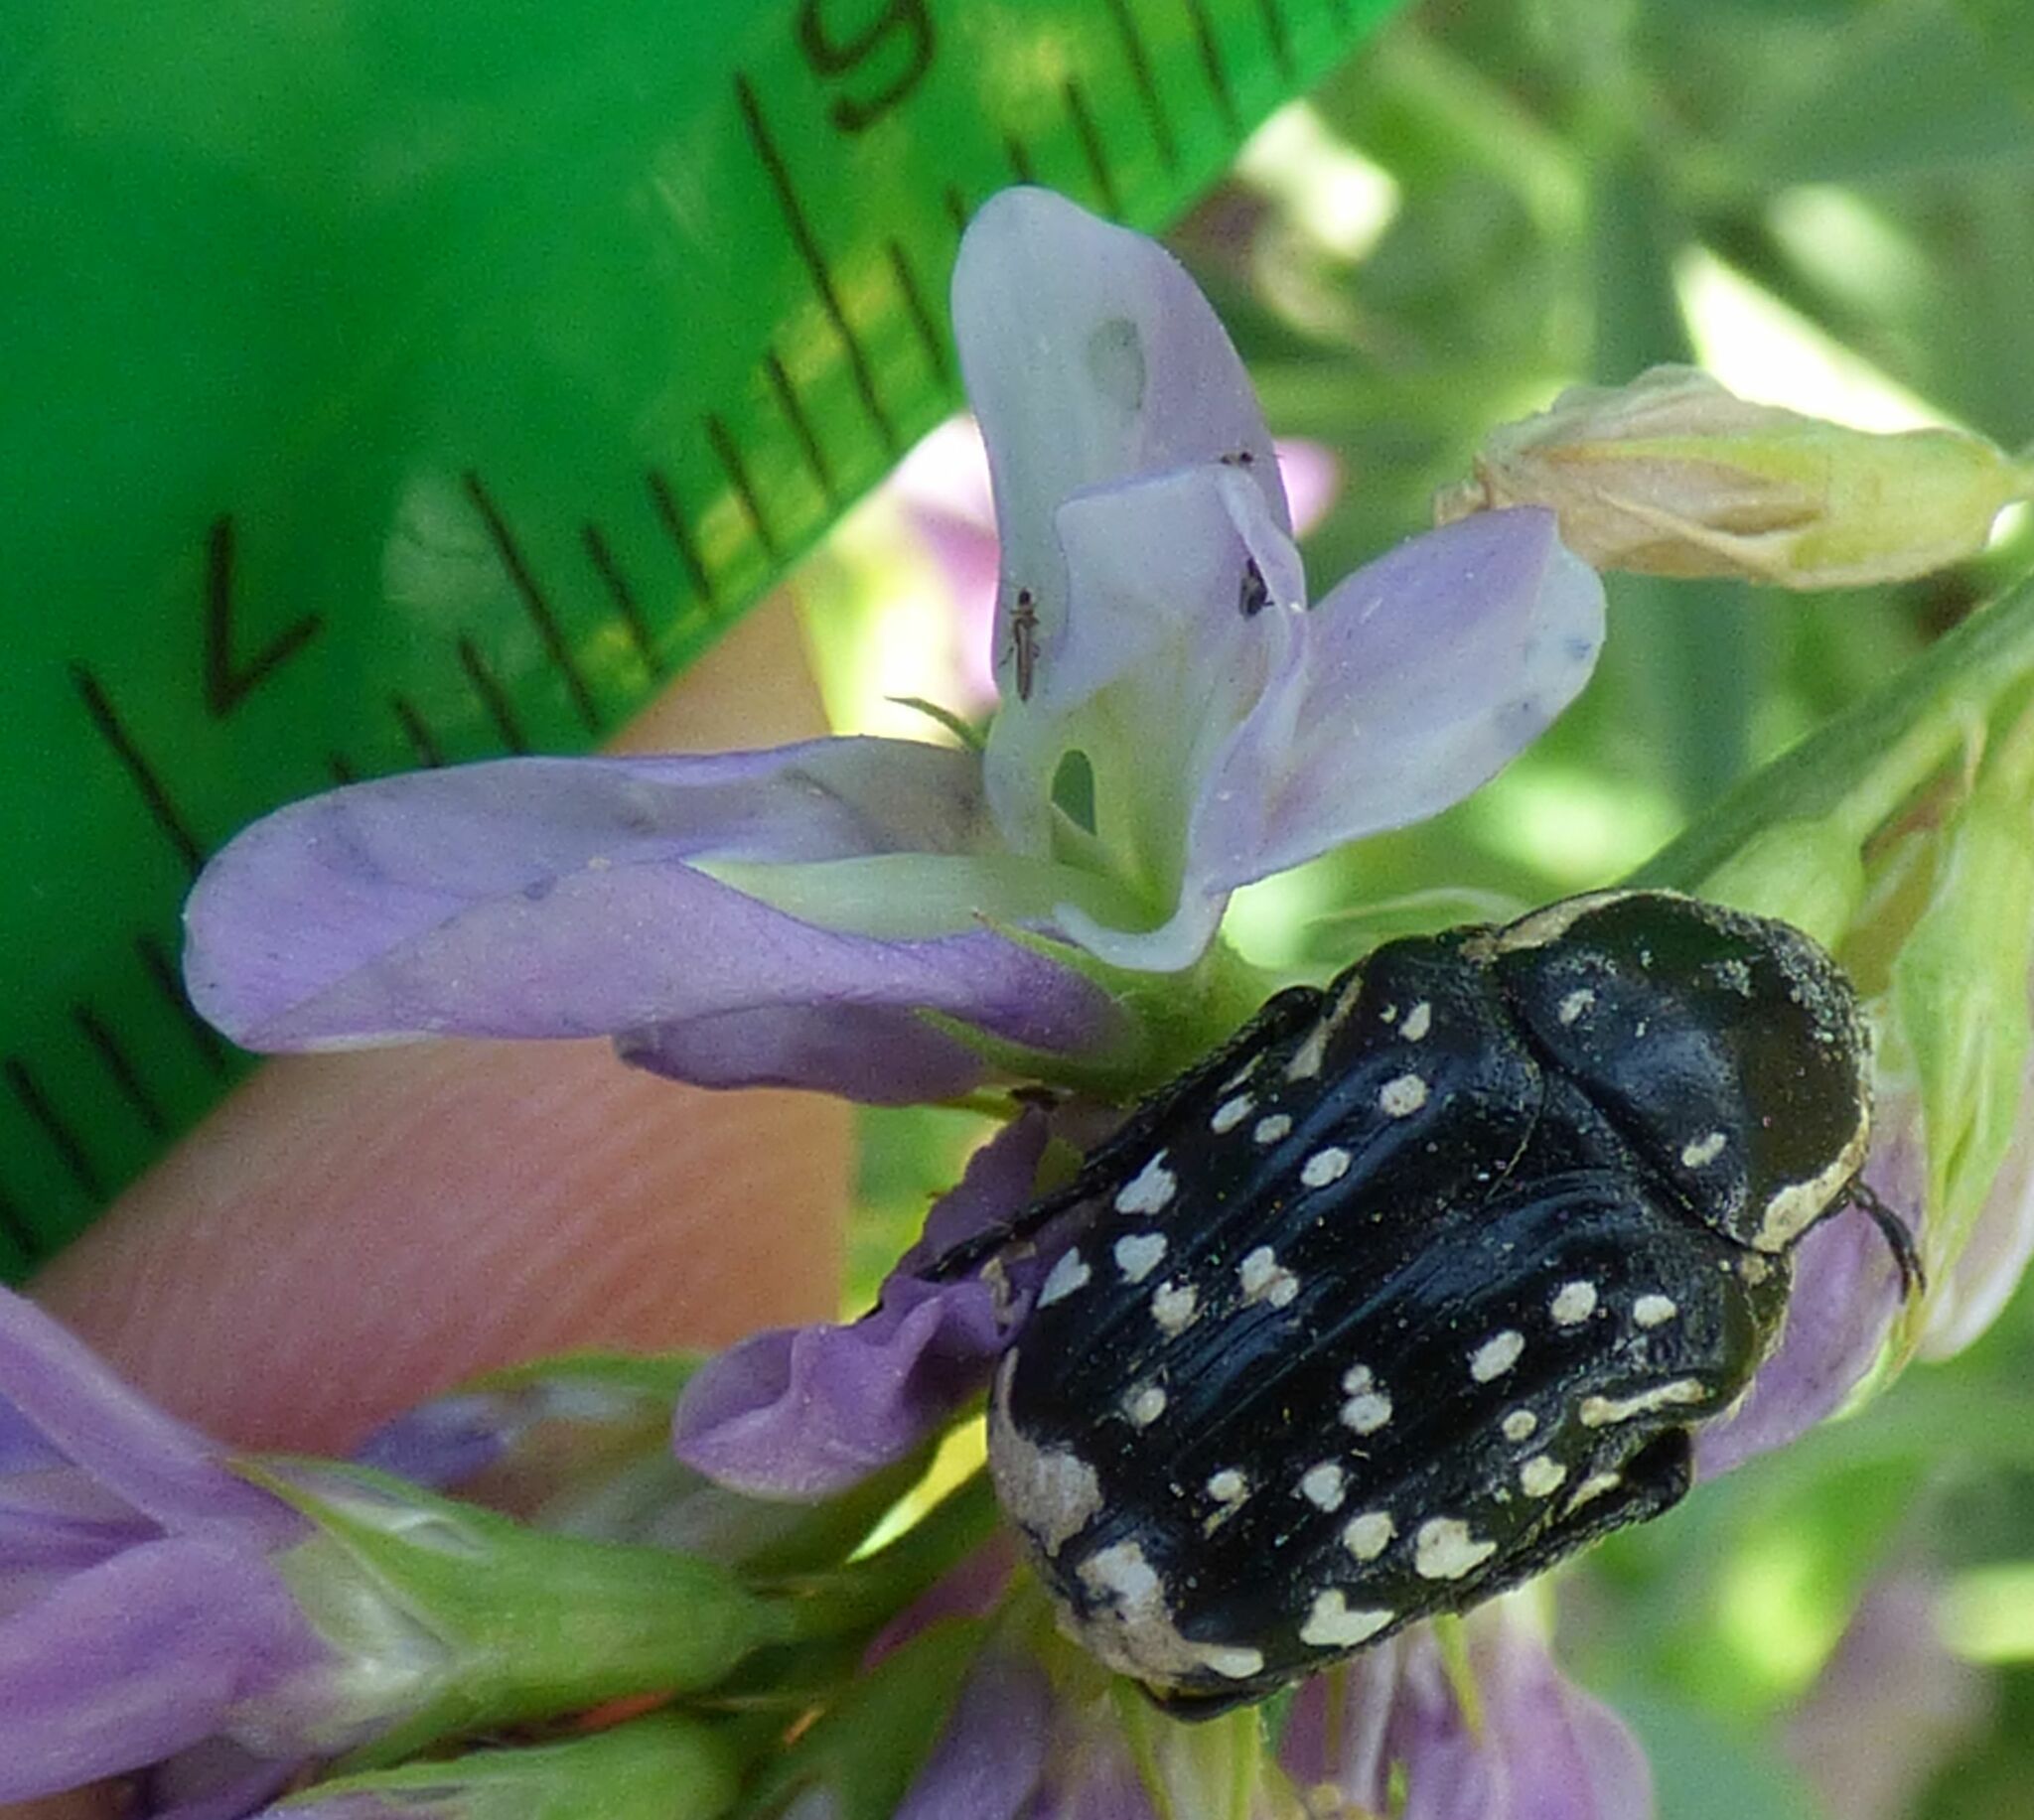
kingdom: Animalia
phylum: Arthropoda
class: Insecta
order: Coleoptera
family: Scarabaeidae
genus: Oxythyrea
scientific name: Oxythyrea cinctella
